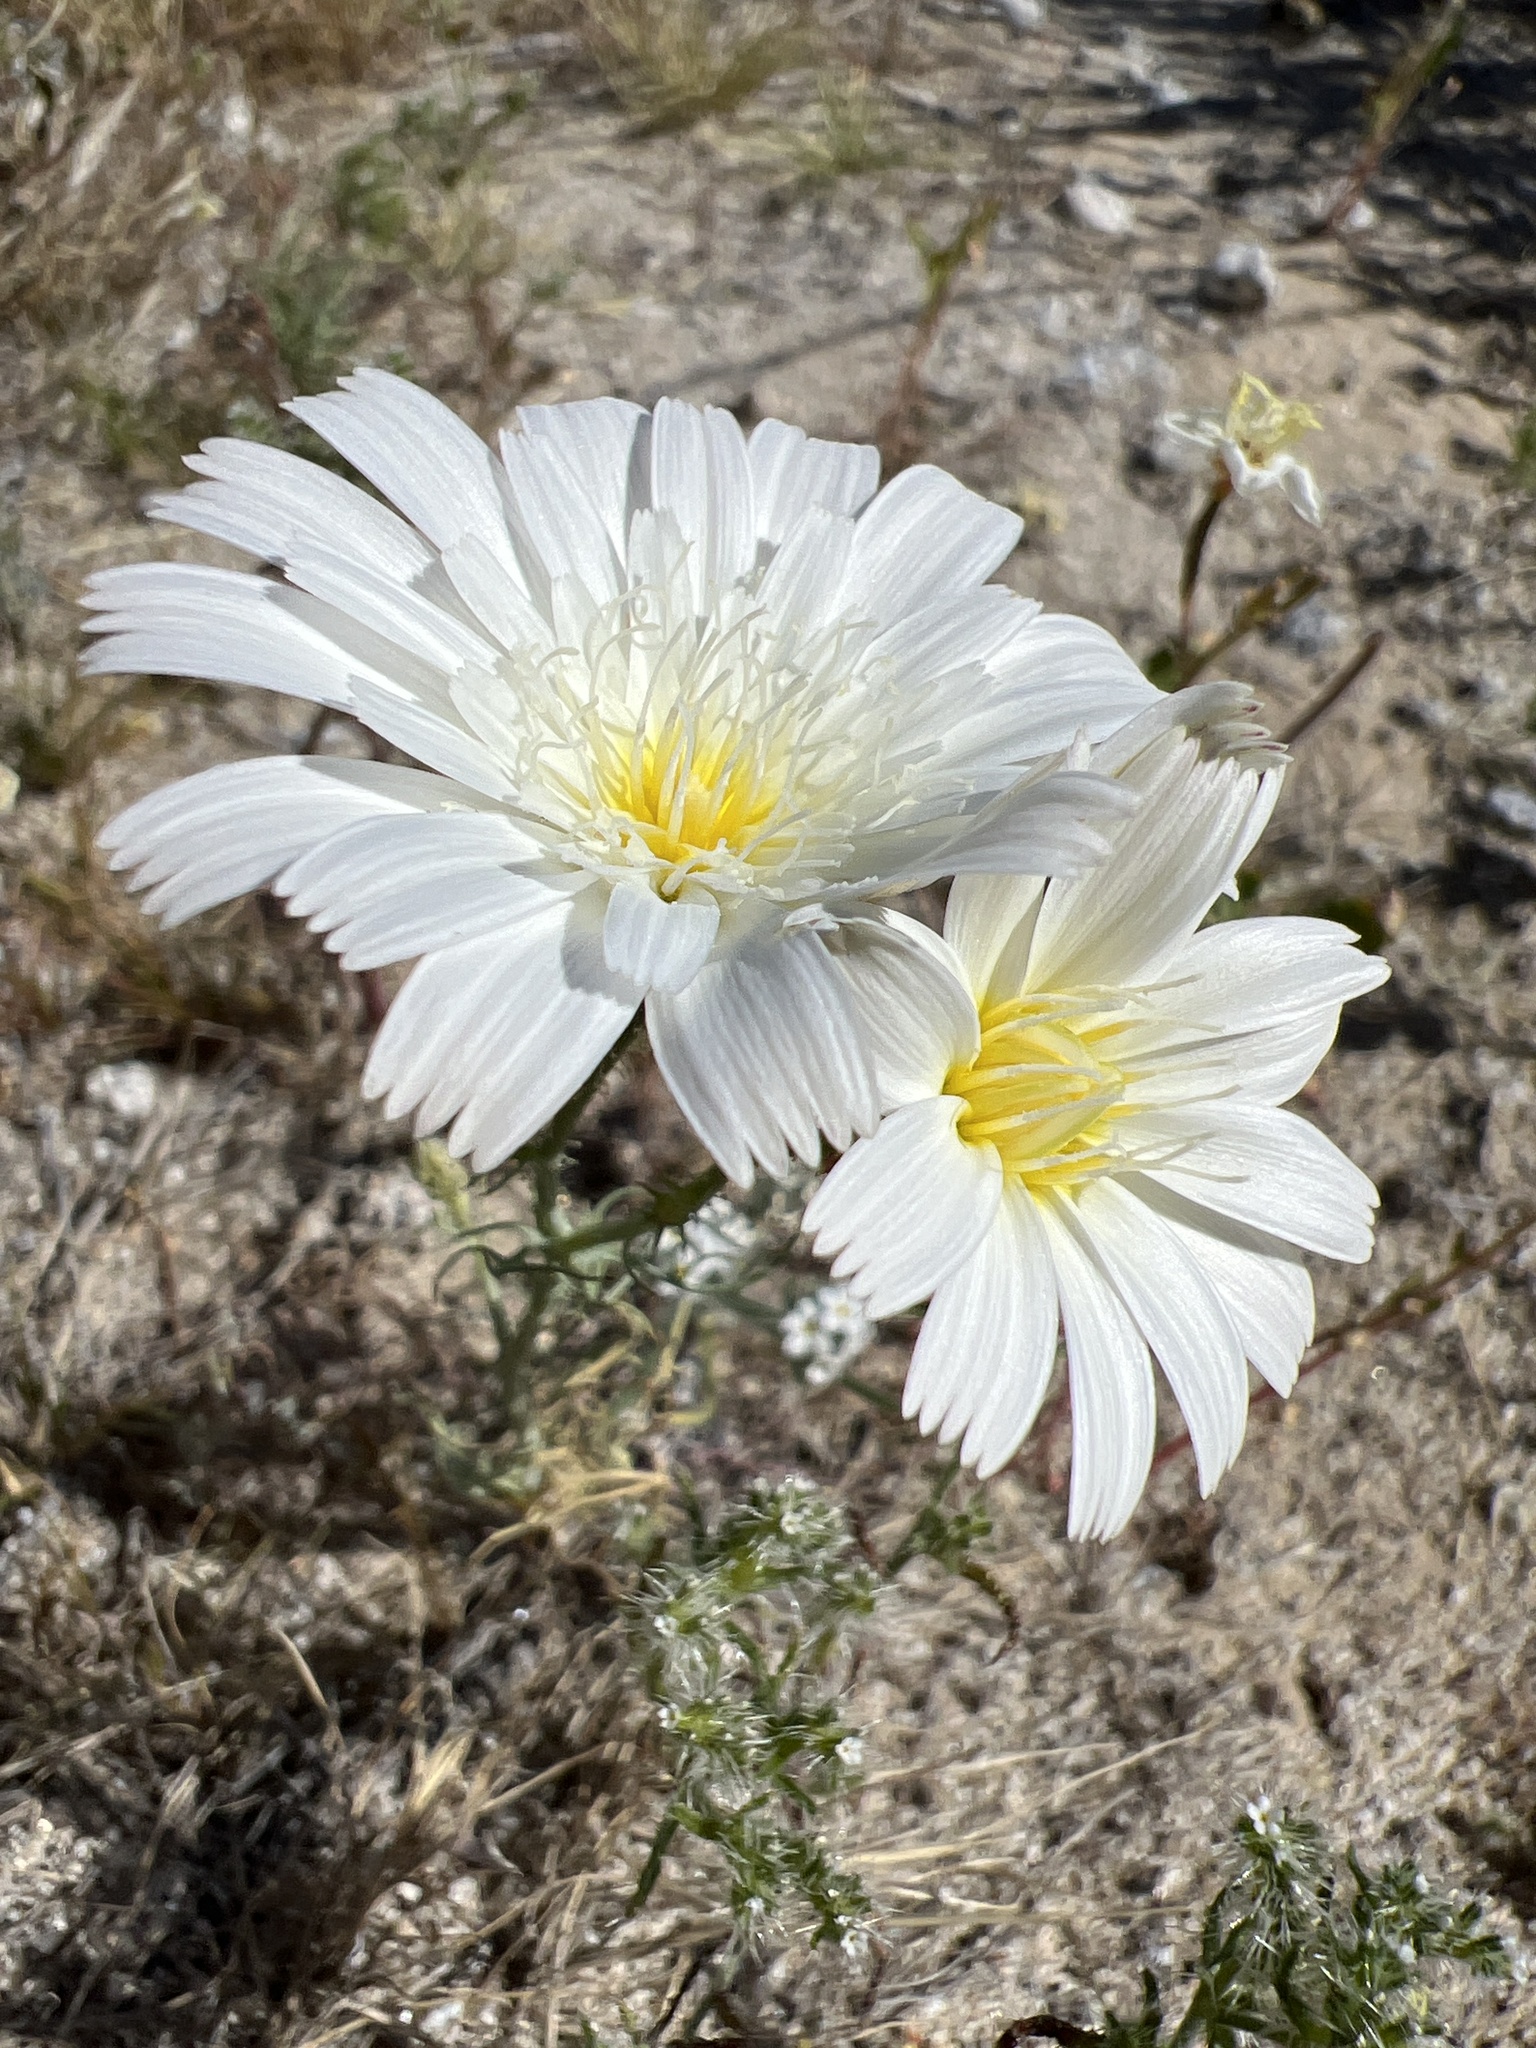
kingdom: Plantae
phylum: Tracheophyta
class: Magnoliopsida
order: Asterales
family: Asteraceae
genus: Rafinesquia
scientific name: Rafinesquia neomexicana
